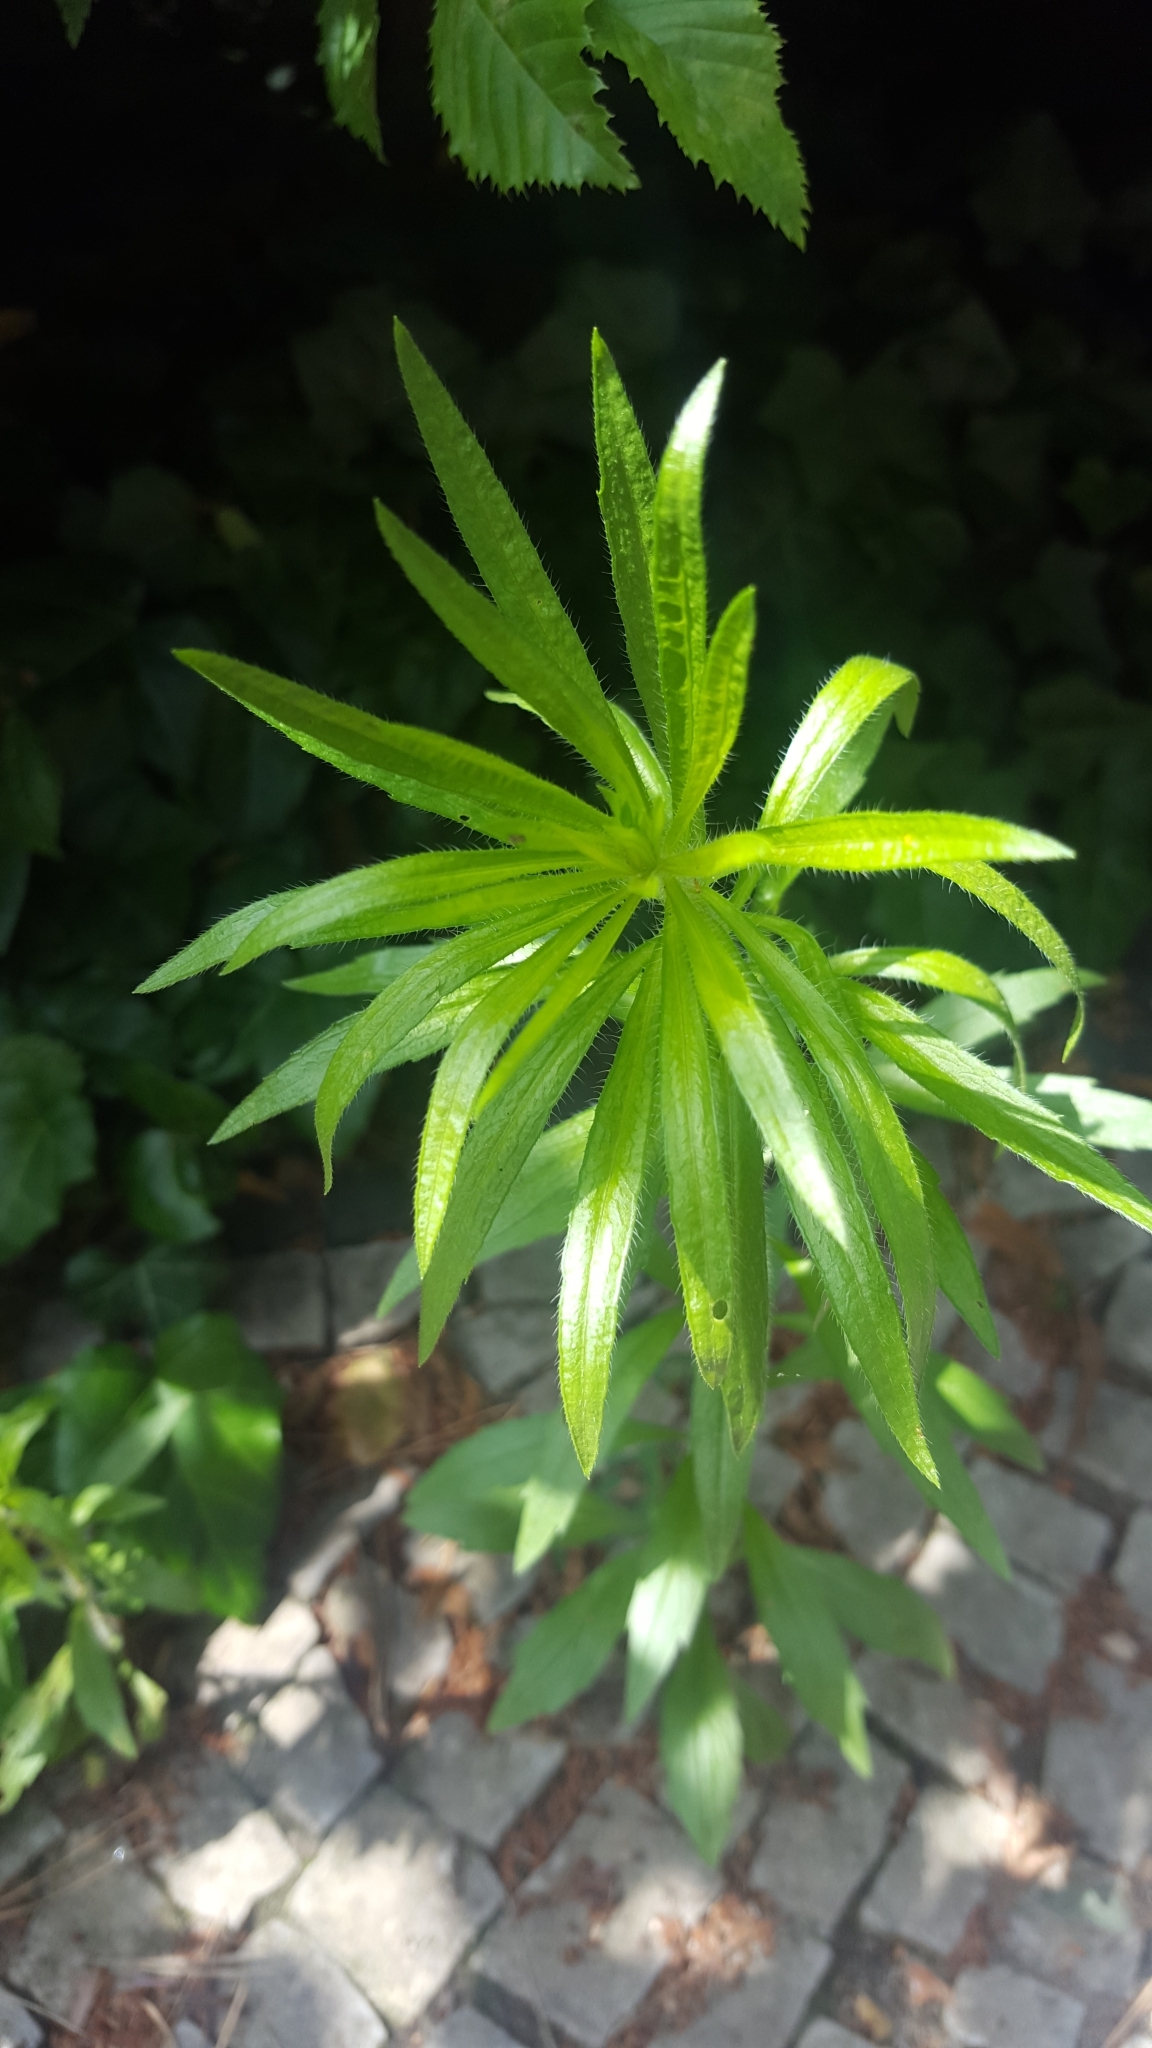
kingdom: Plantae
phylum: Tracheophyta
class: Magnoliopsida
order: Asterales
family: Asteraceae
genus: Erigeron
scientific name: Erigeron canadensis
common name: Canadian fleabane
